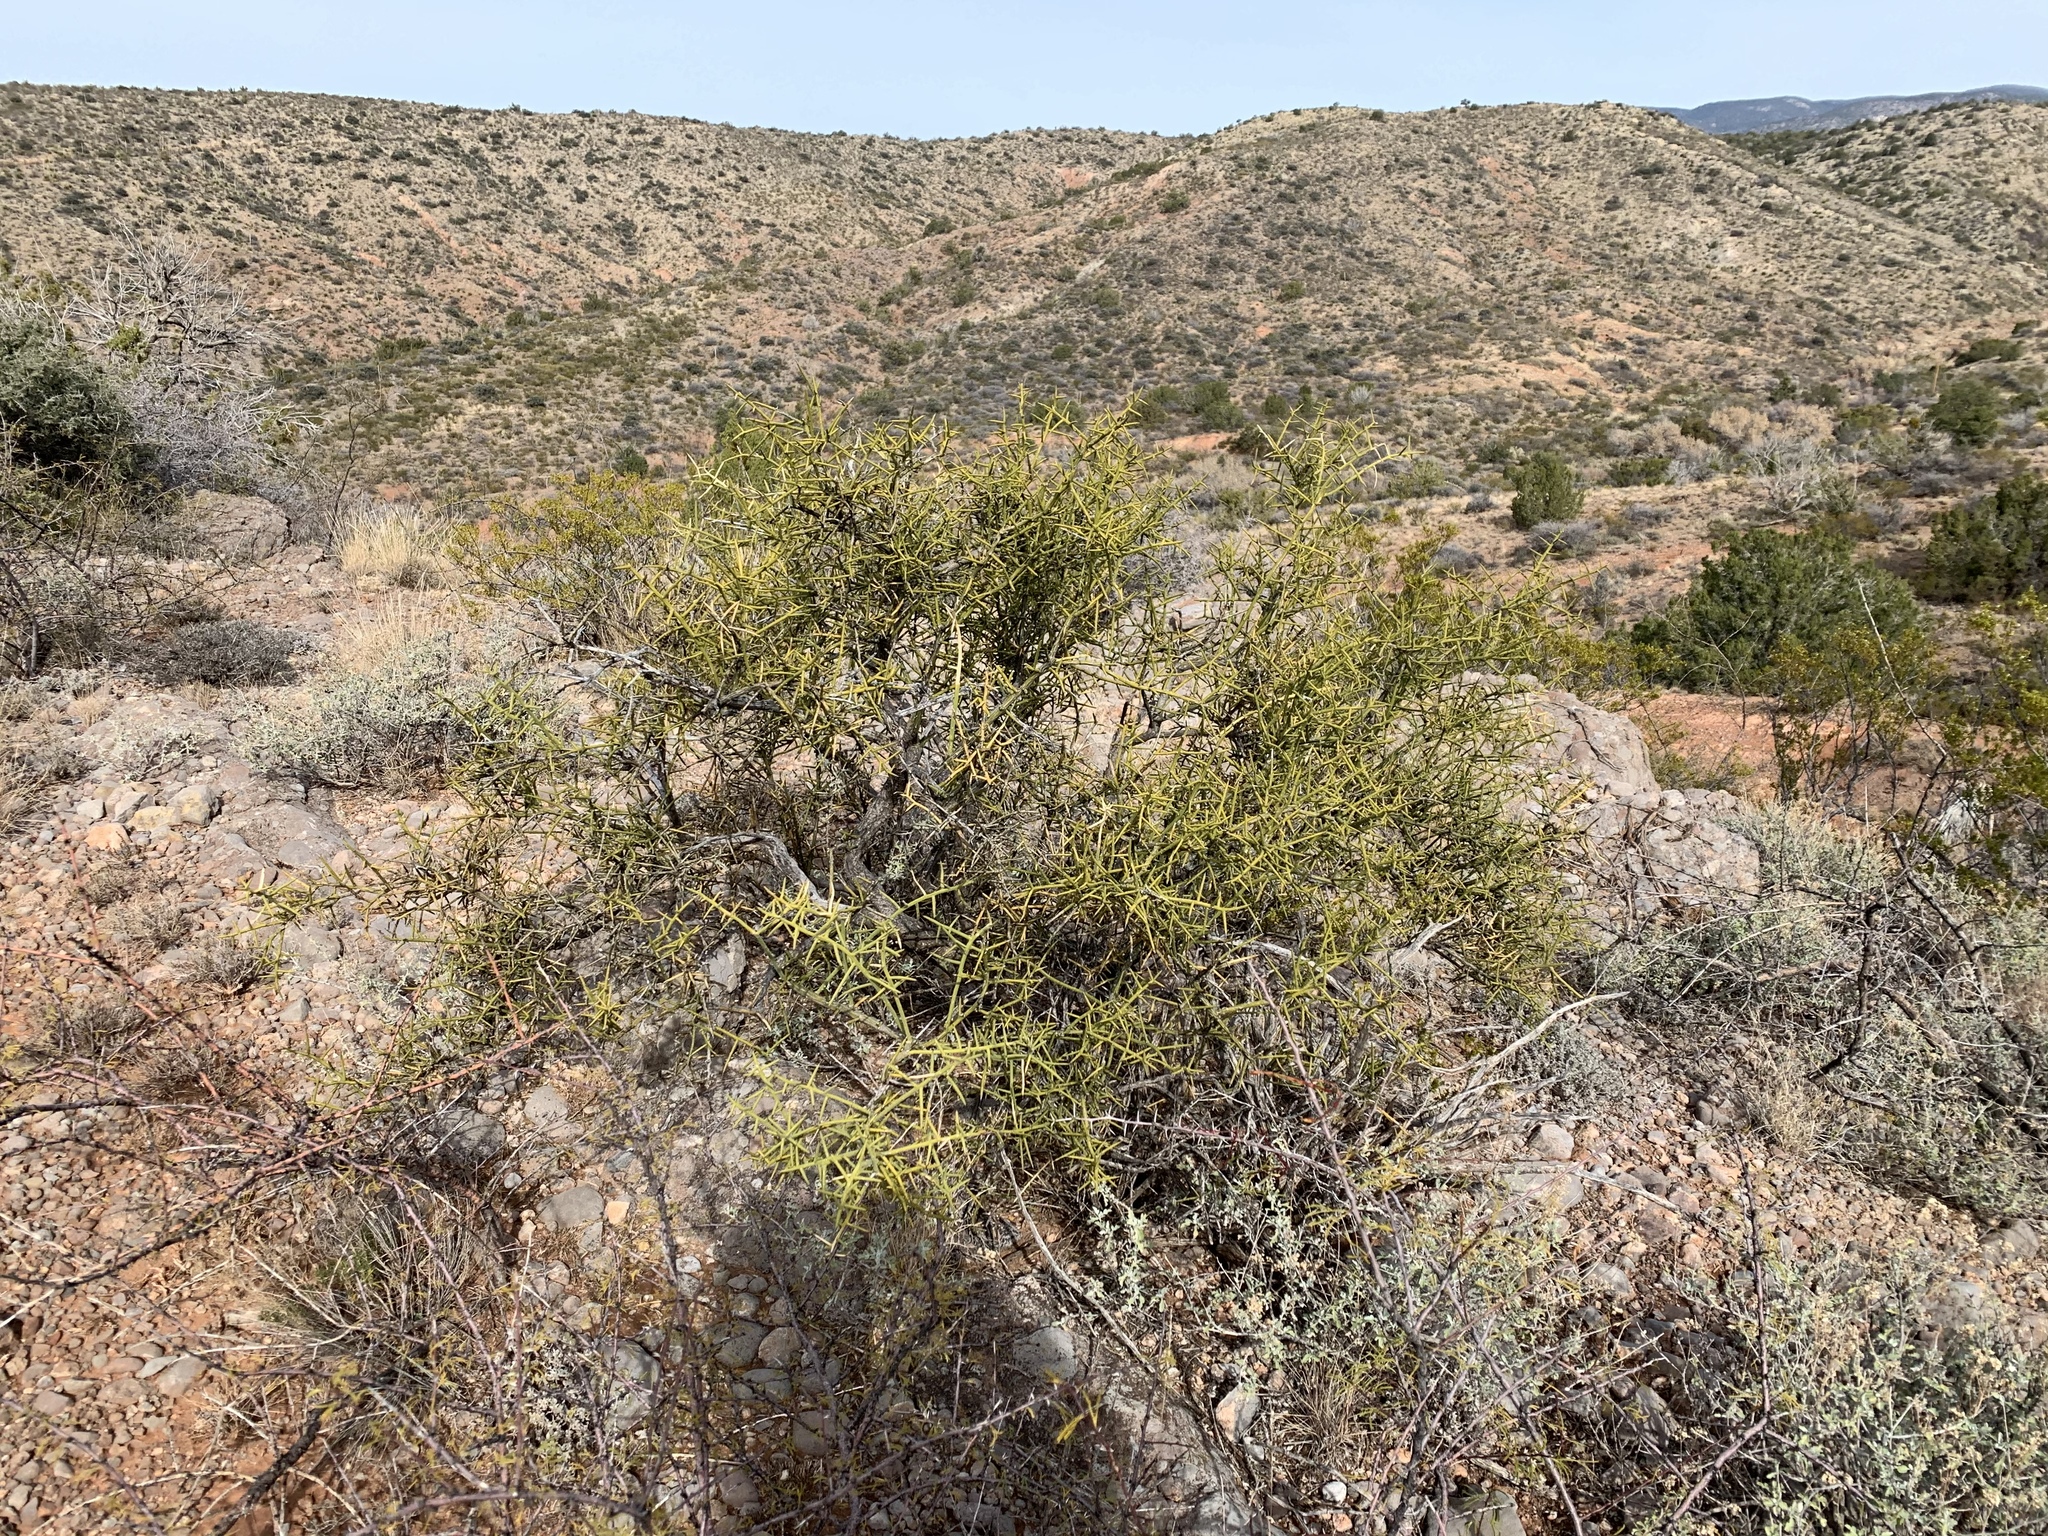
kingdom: Plantae
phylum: Tracheophyta
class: Magnoliopsida
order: Brassicales
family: Koeberliniaceae
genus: Koeberlinia
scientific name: Koeberlinia spinosa
